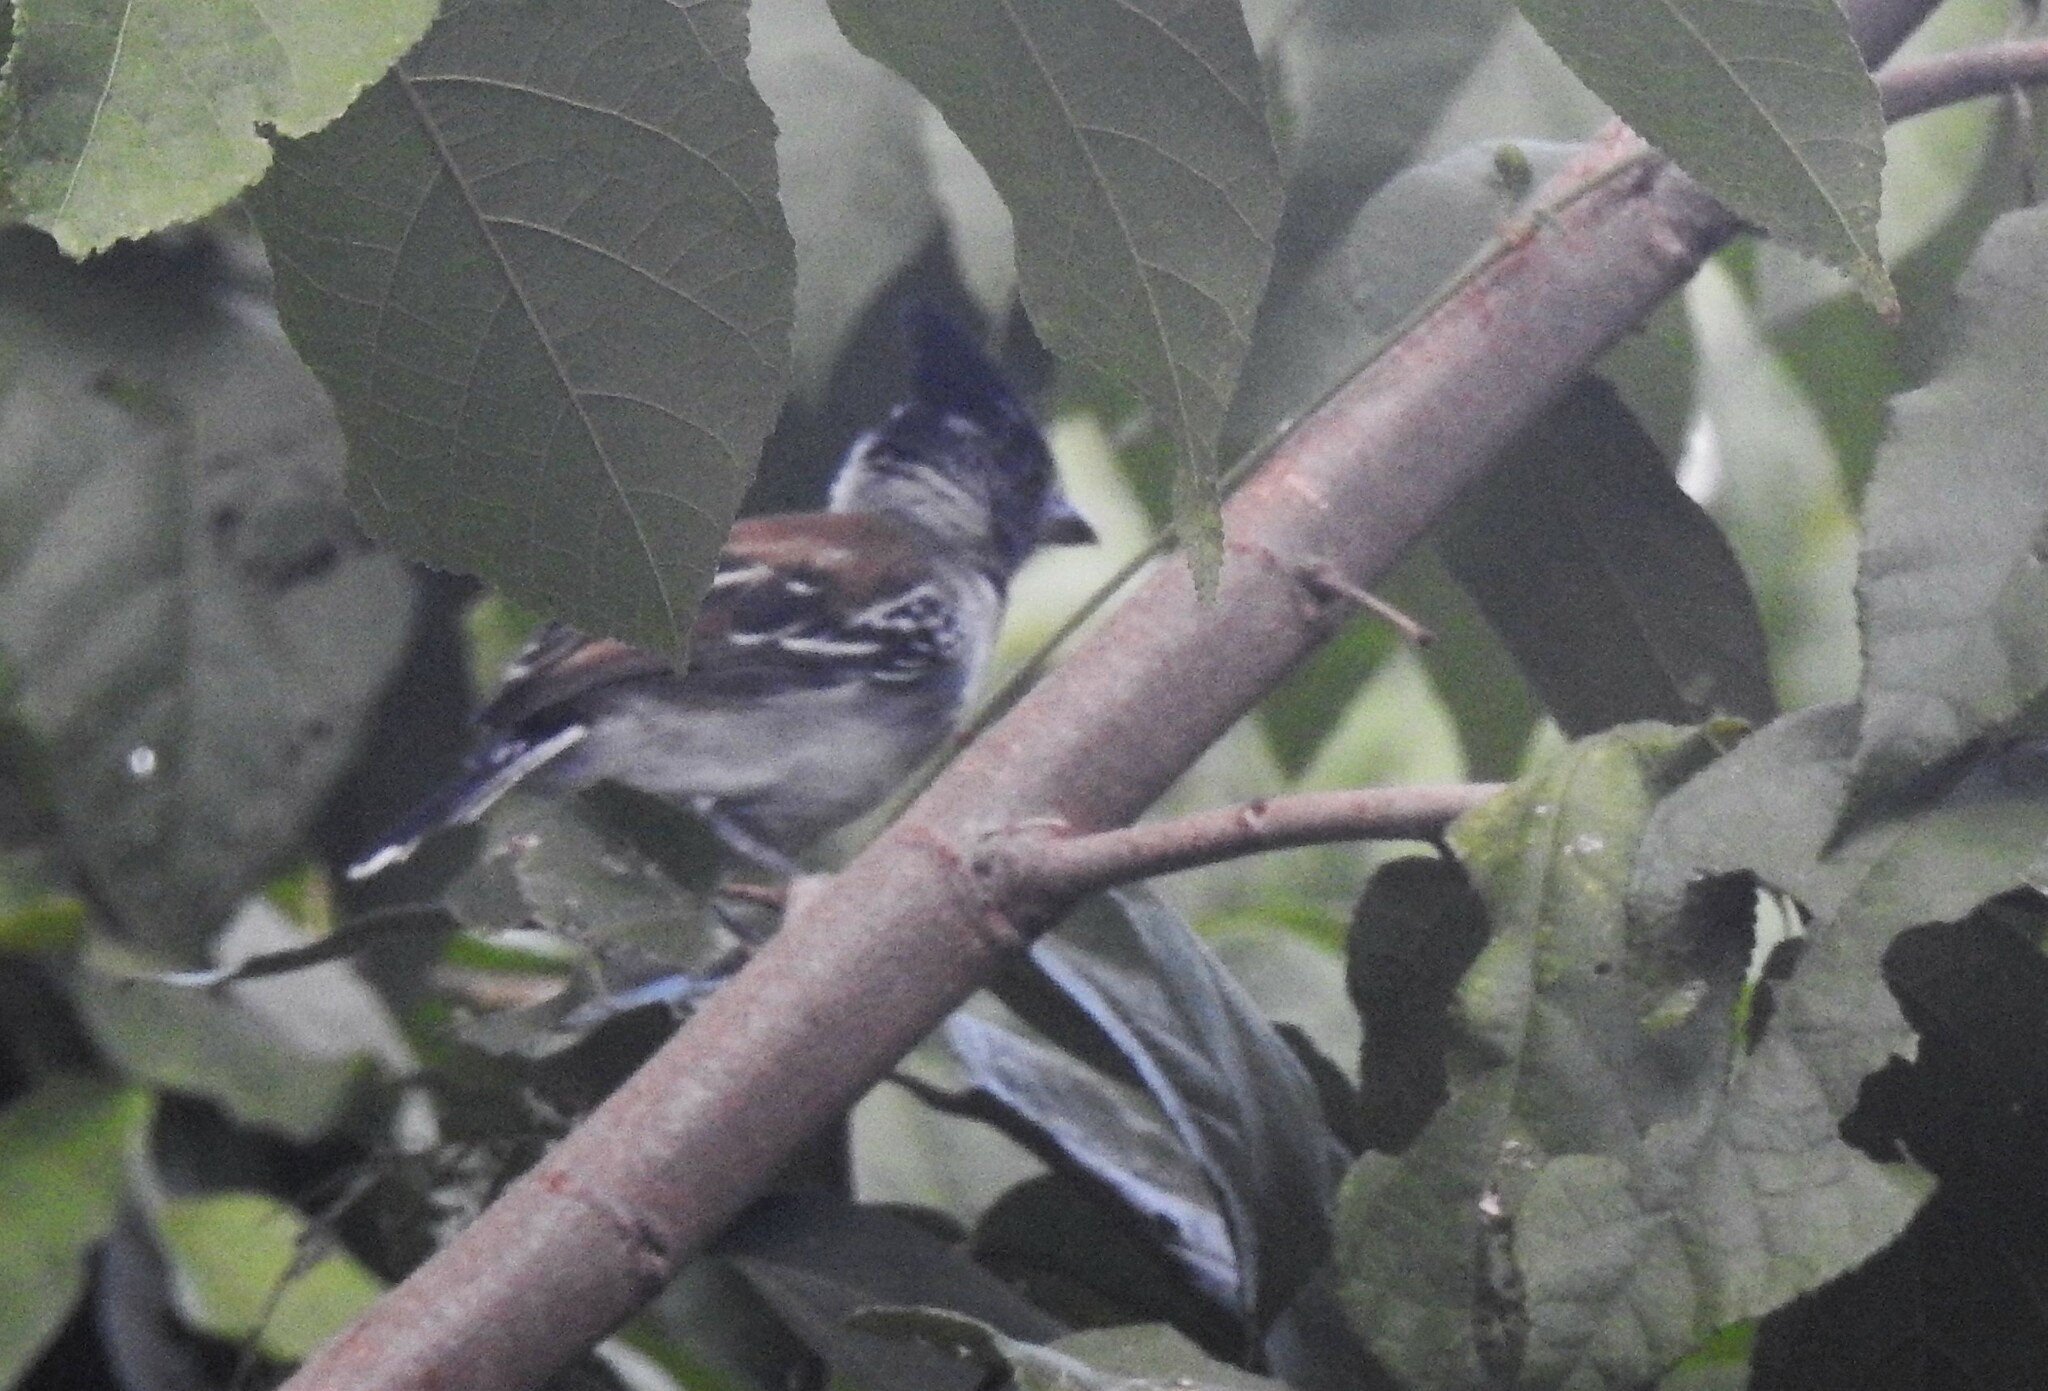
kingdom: Animalia
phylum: Chordata
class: Aves
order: Passeriformes
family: Thamnophilidae
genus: Sakesphorus
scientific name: Sakesphorus canadensis
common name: Black-crested antshrike
